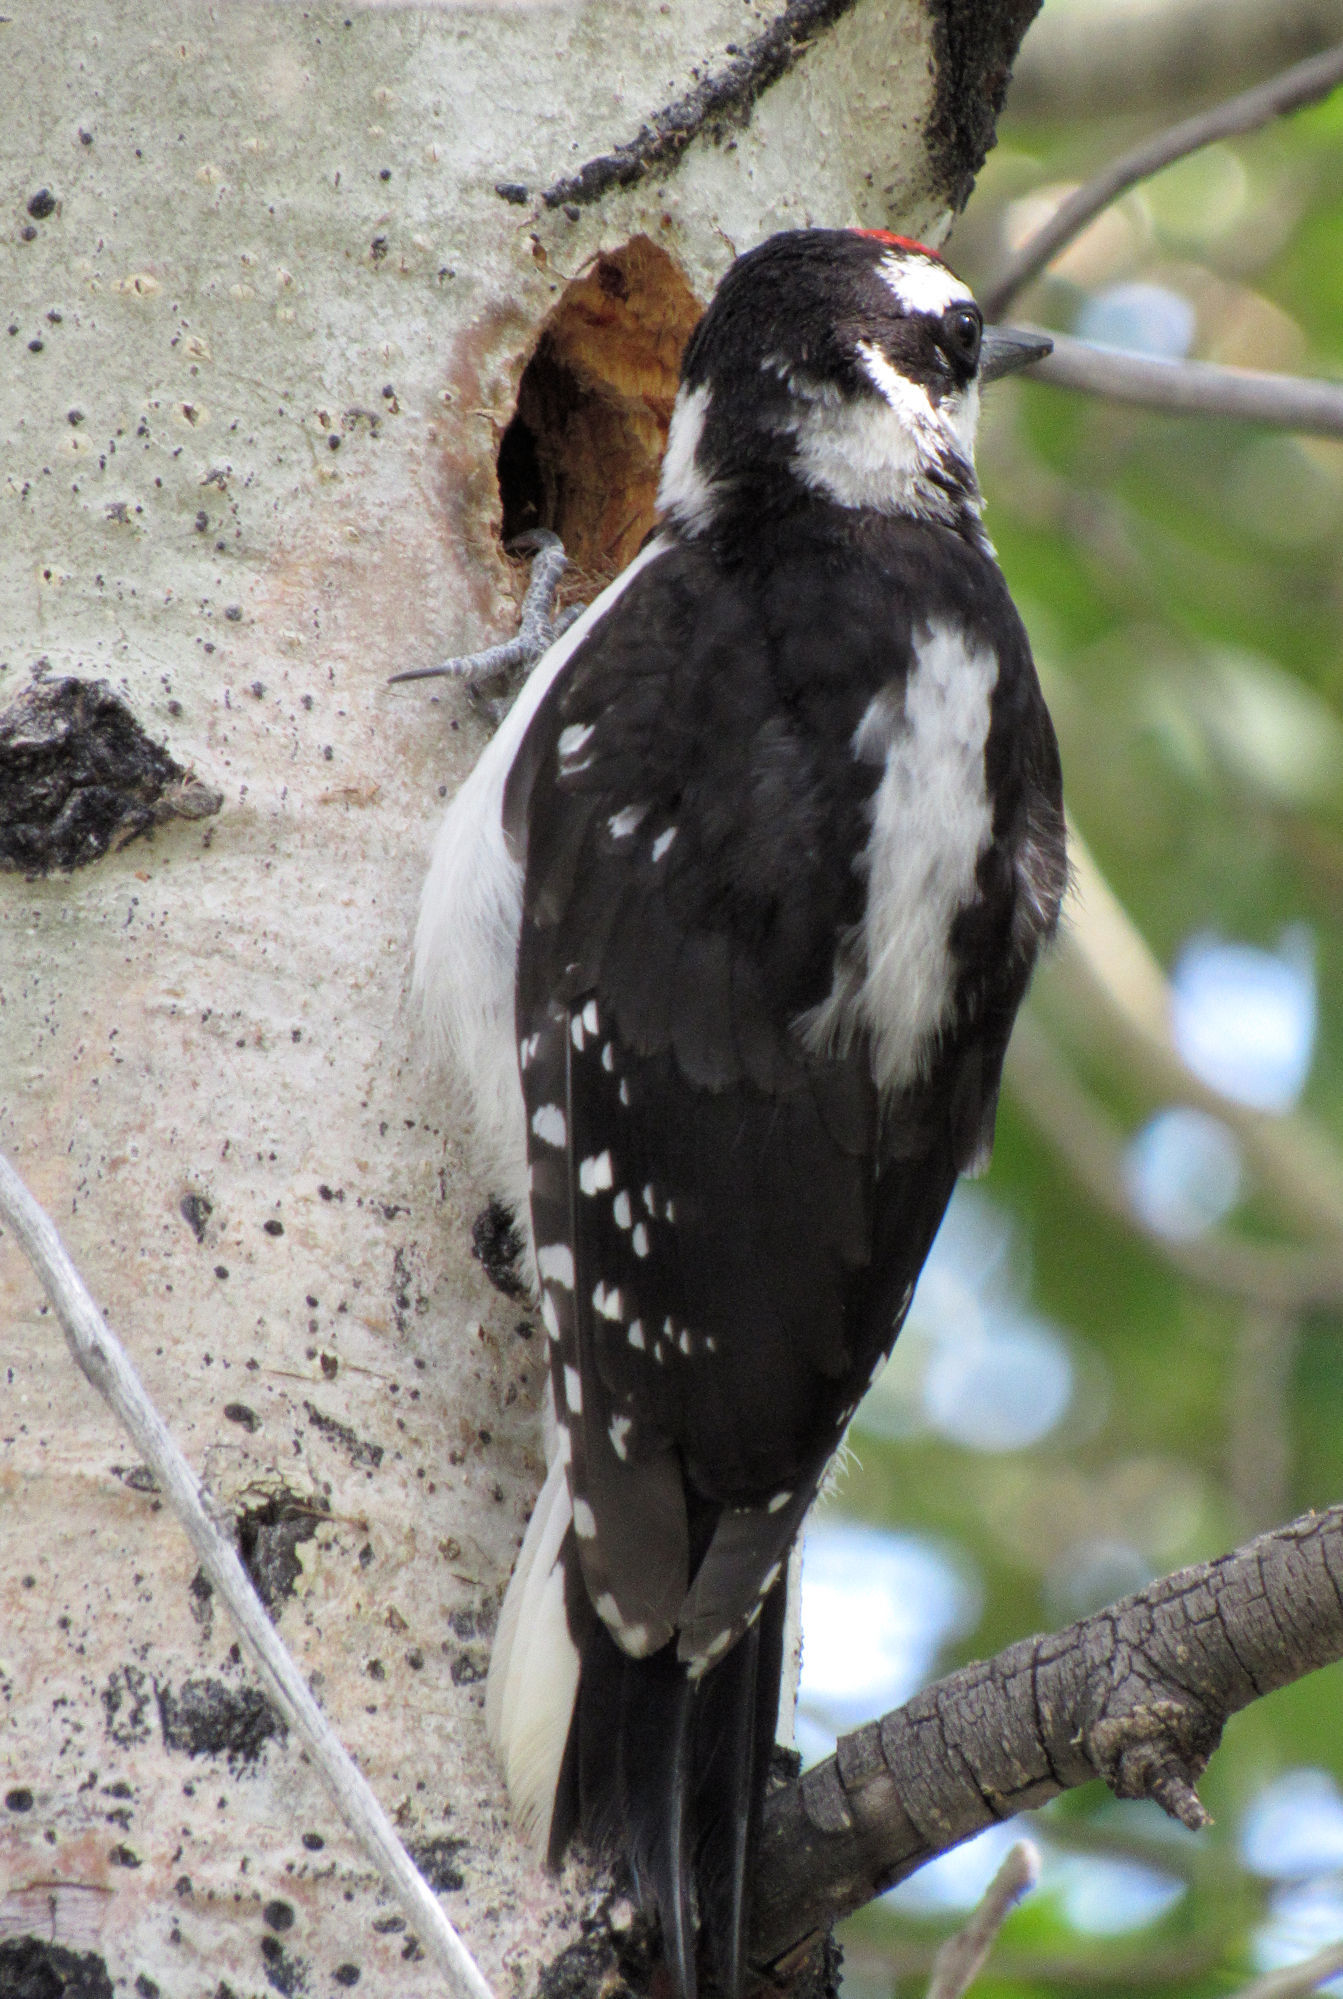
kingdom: Animalia
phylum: Chordata
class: Aves
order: Piciformes
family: Picidae
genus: Leuconotopicus
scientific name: Leuconotopicus villosus
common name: Hairy woodpecker
